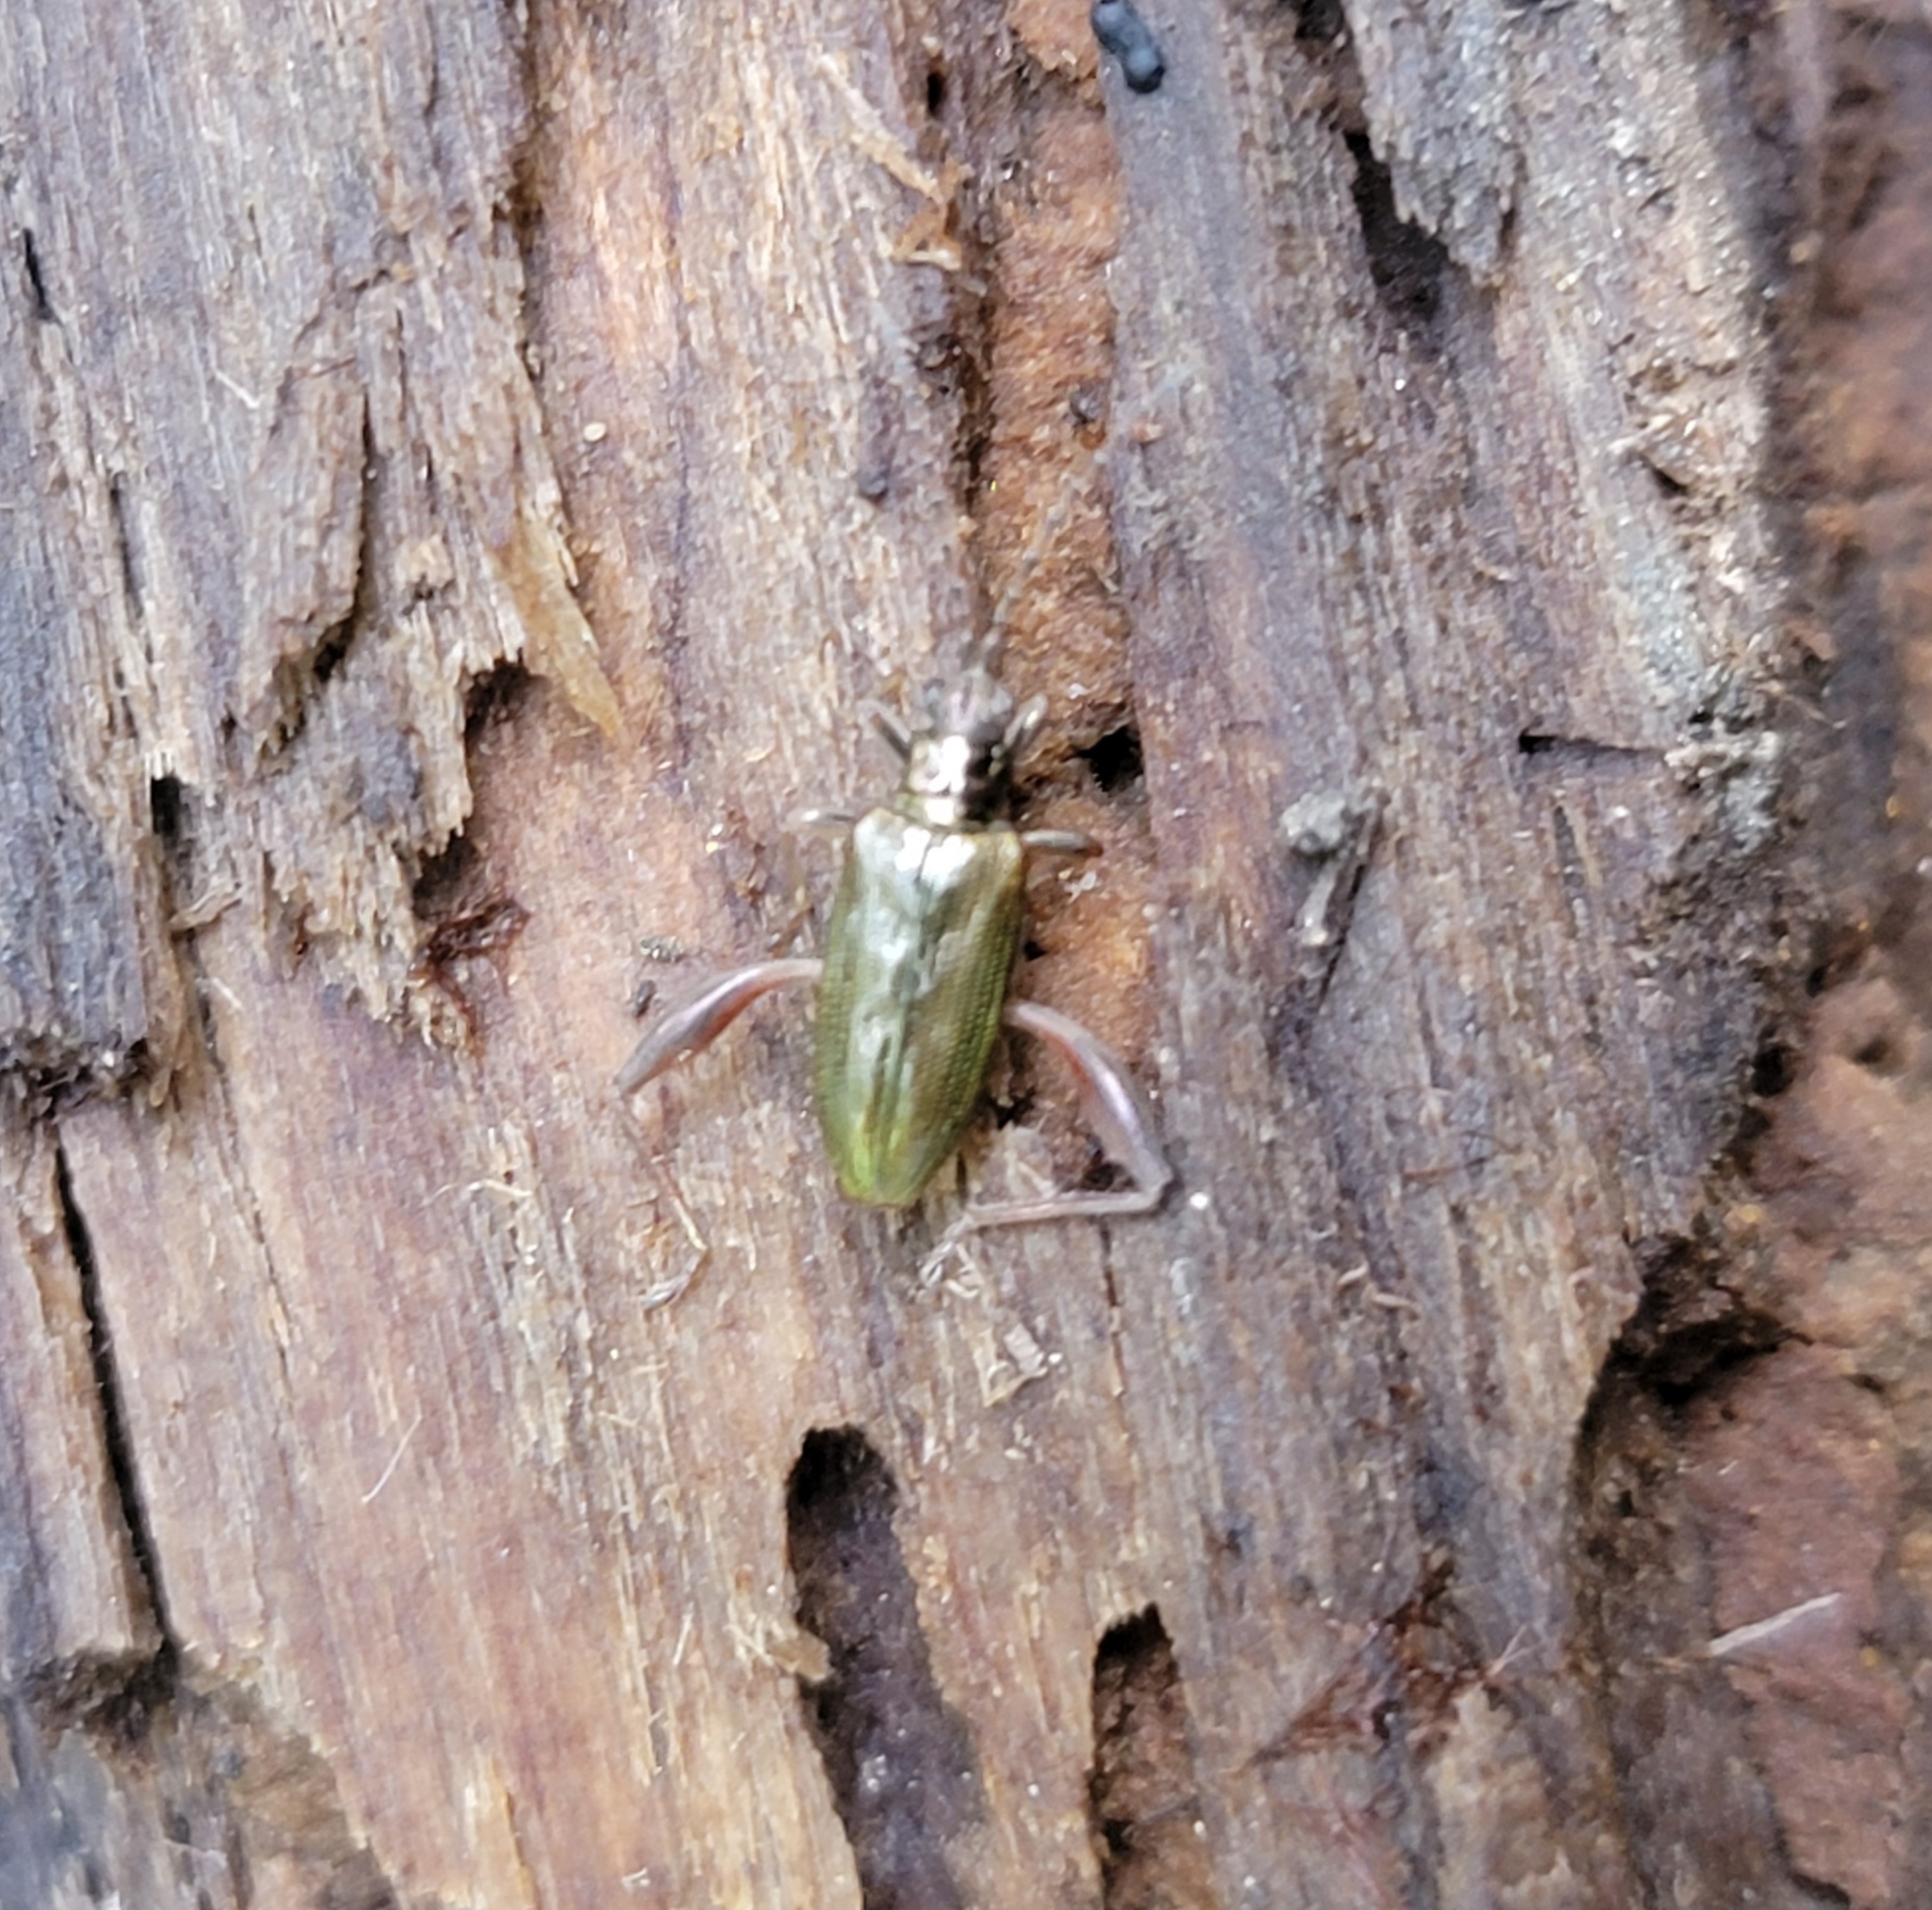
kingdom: Animalia
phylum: Arthropoda
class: Insecta
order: Coleoptera
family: Chrysomelidae
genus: Donacia
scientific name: Donacia proxima
